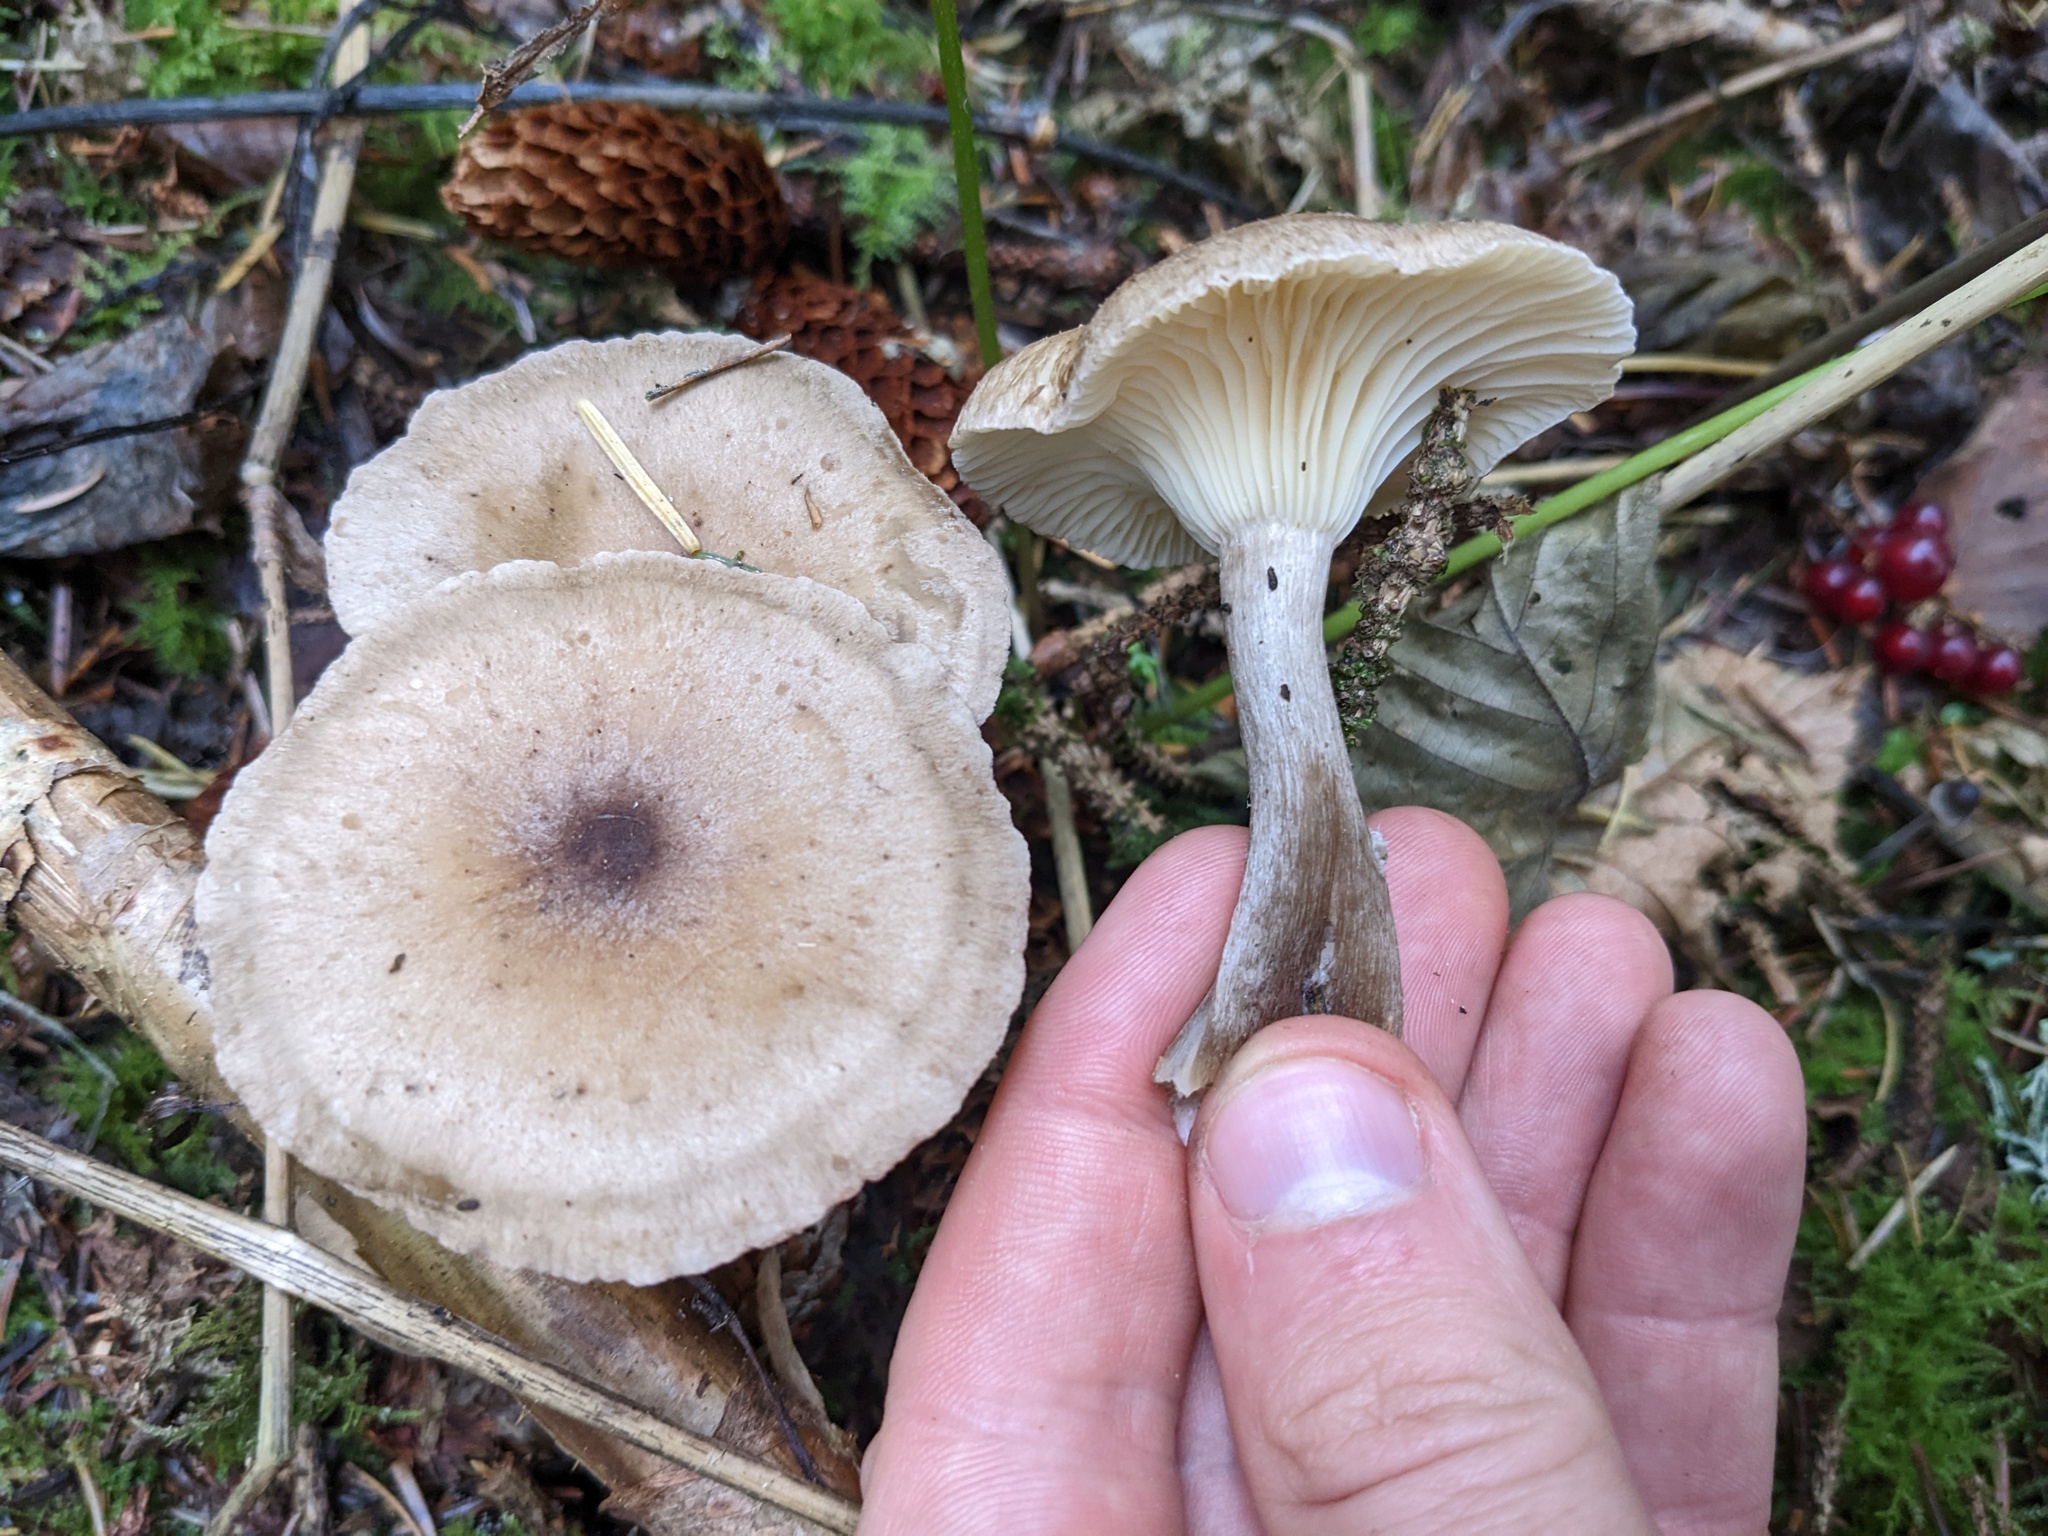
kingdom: Fungi
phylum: Basidiomycota
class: Agaricomycetes
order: Agaricales
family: Hygrophoraceae
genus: Ampulloclitocybe
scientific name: Ampulloclitocybe clavipes
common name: Club foot
